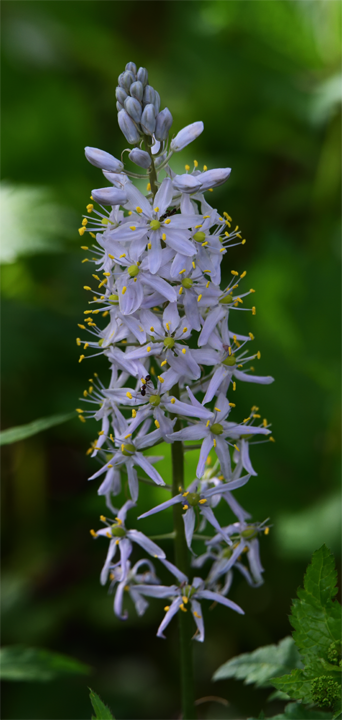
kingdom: Plantae
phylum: Tracheophyta
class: Liliopsida
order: Asparagales
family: Asparagaceae
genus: Camassia
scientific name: Camassia scilloides
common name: Wild hyacinth
